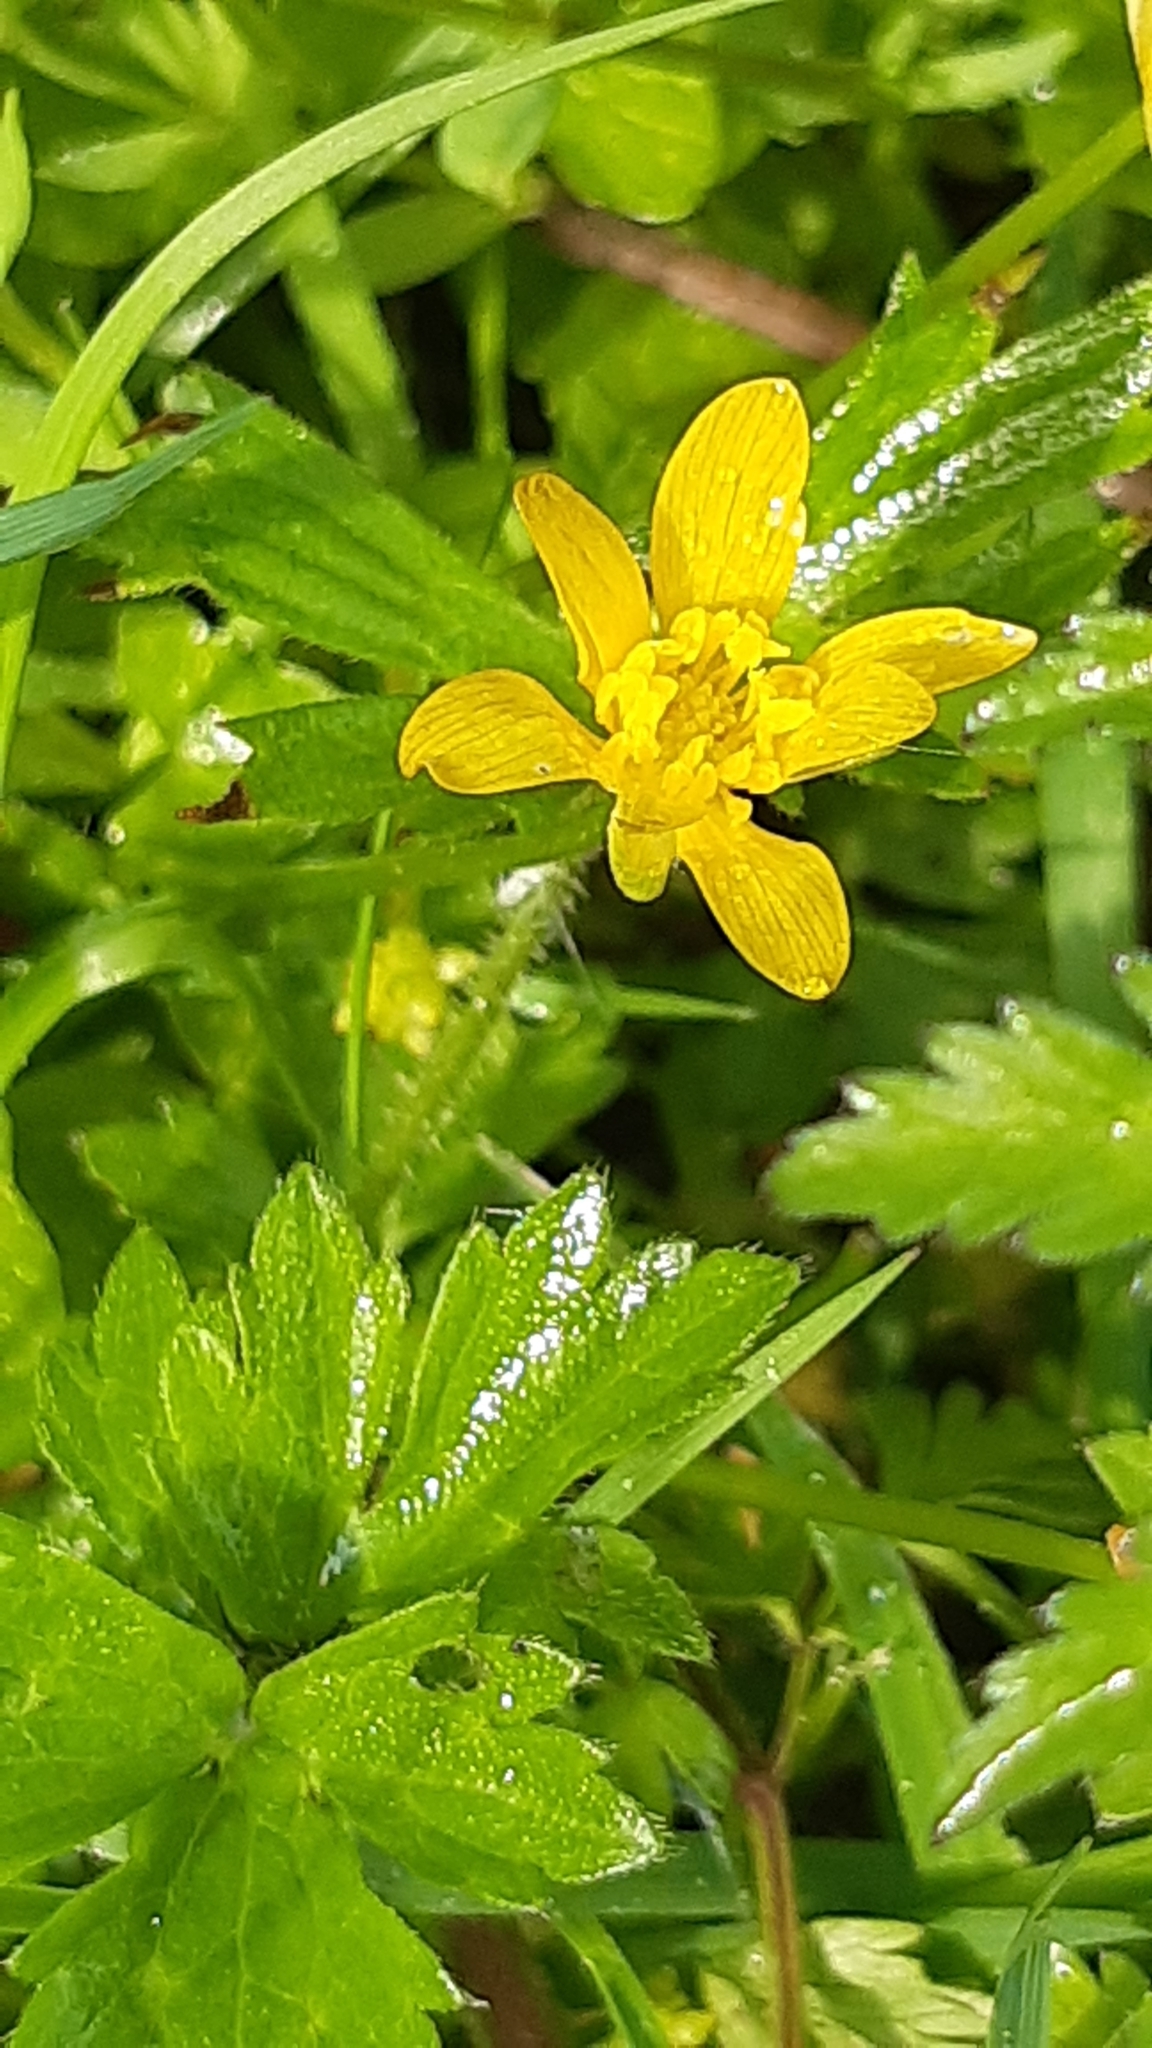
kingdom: Plantae
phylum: Tracheophyta
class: Magnoliopsida
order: Ranunculales
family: Ranunculaceae
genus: Ficaria
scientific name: Ficaria verna
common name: Lesser celandine
